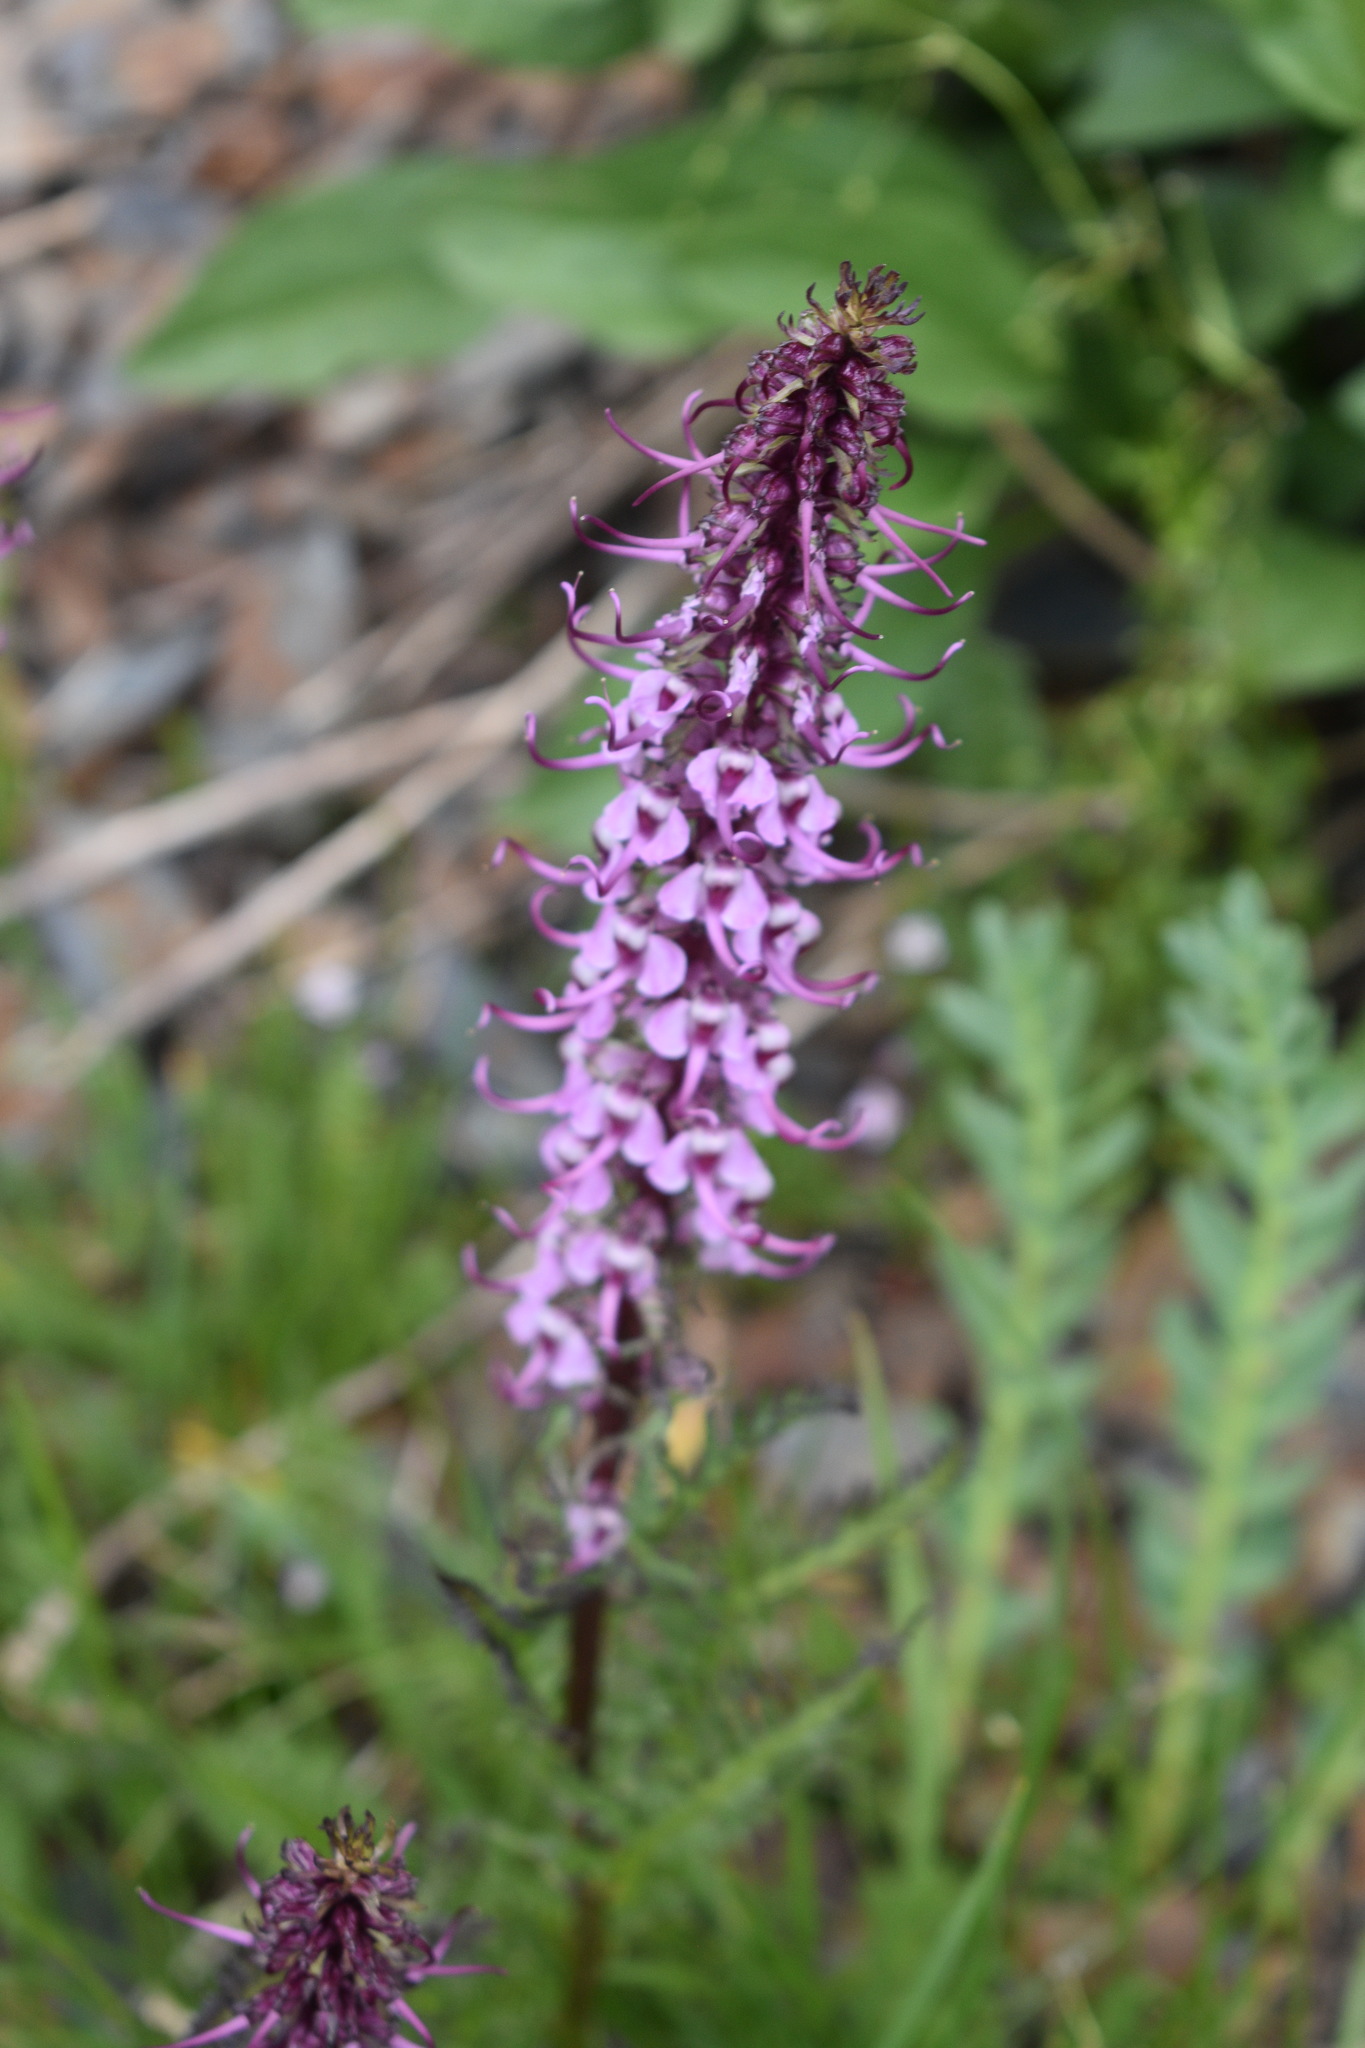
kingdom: Plantae
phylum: Tracheophyta
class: Magnoliopsida
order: Lamiales
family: Orobanchaceae
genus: Pedicularis
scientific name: Pedicularis groenlandica
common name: Elephant's-head
